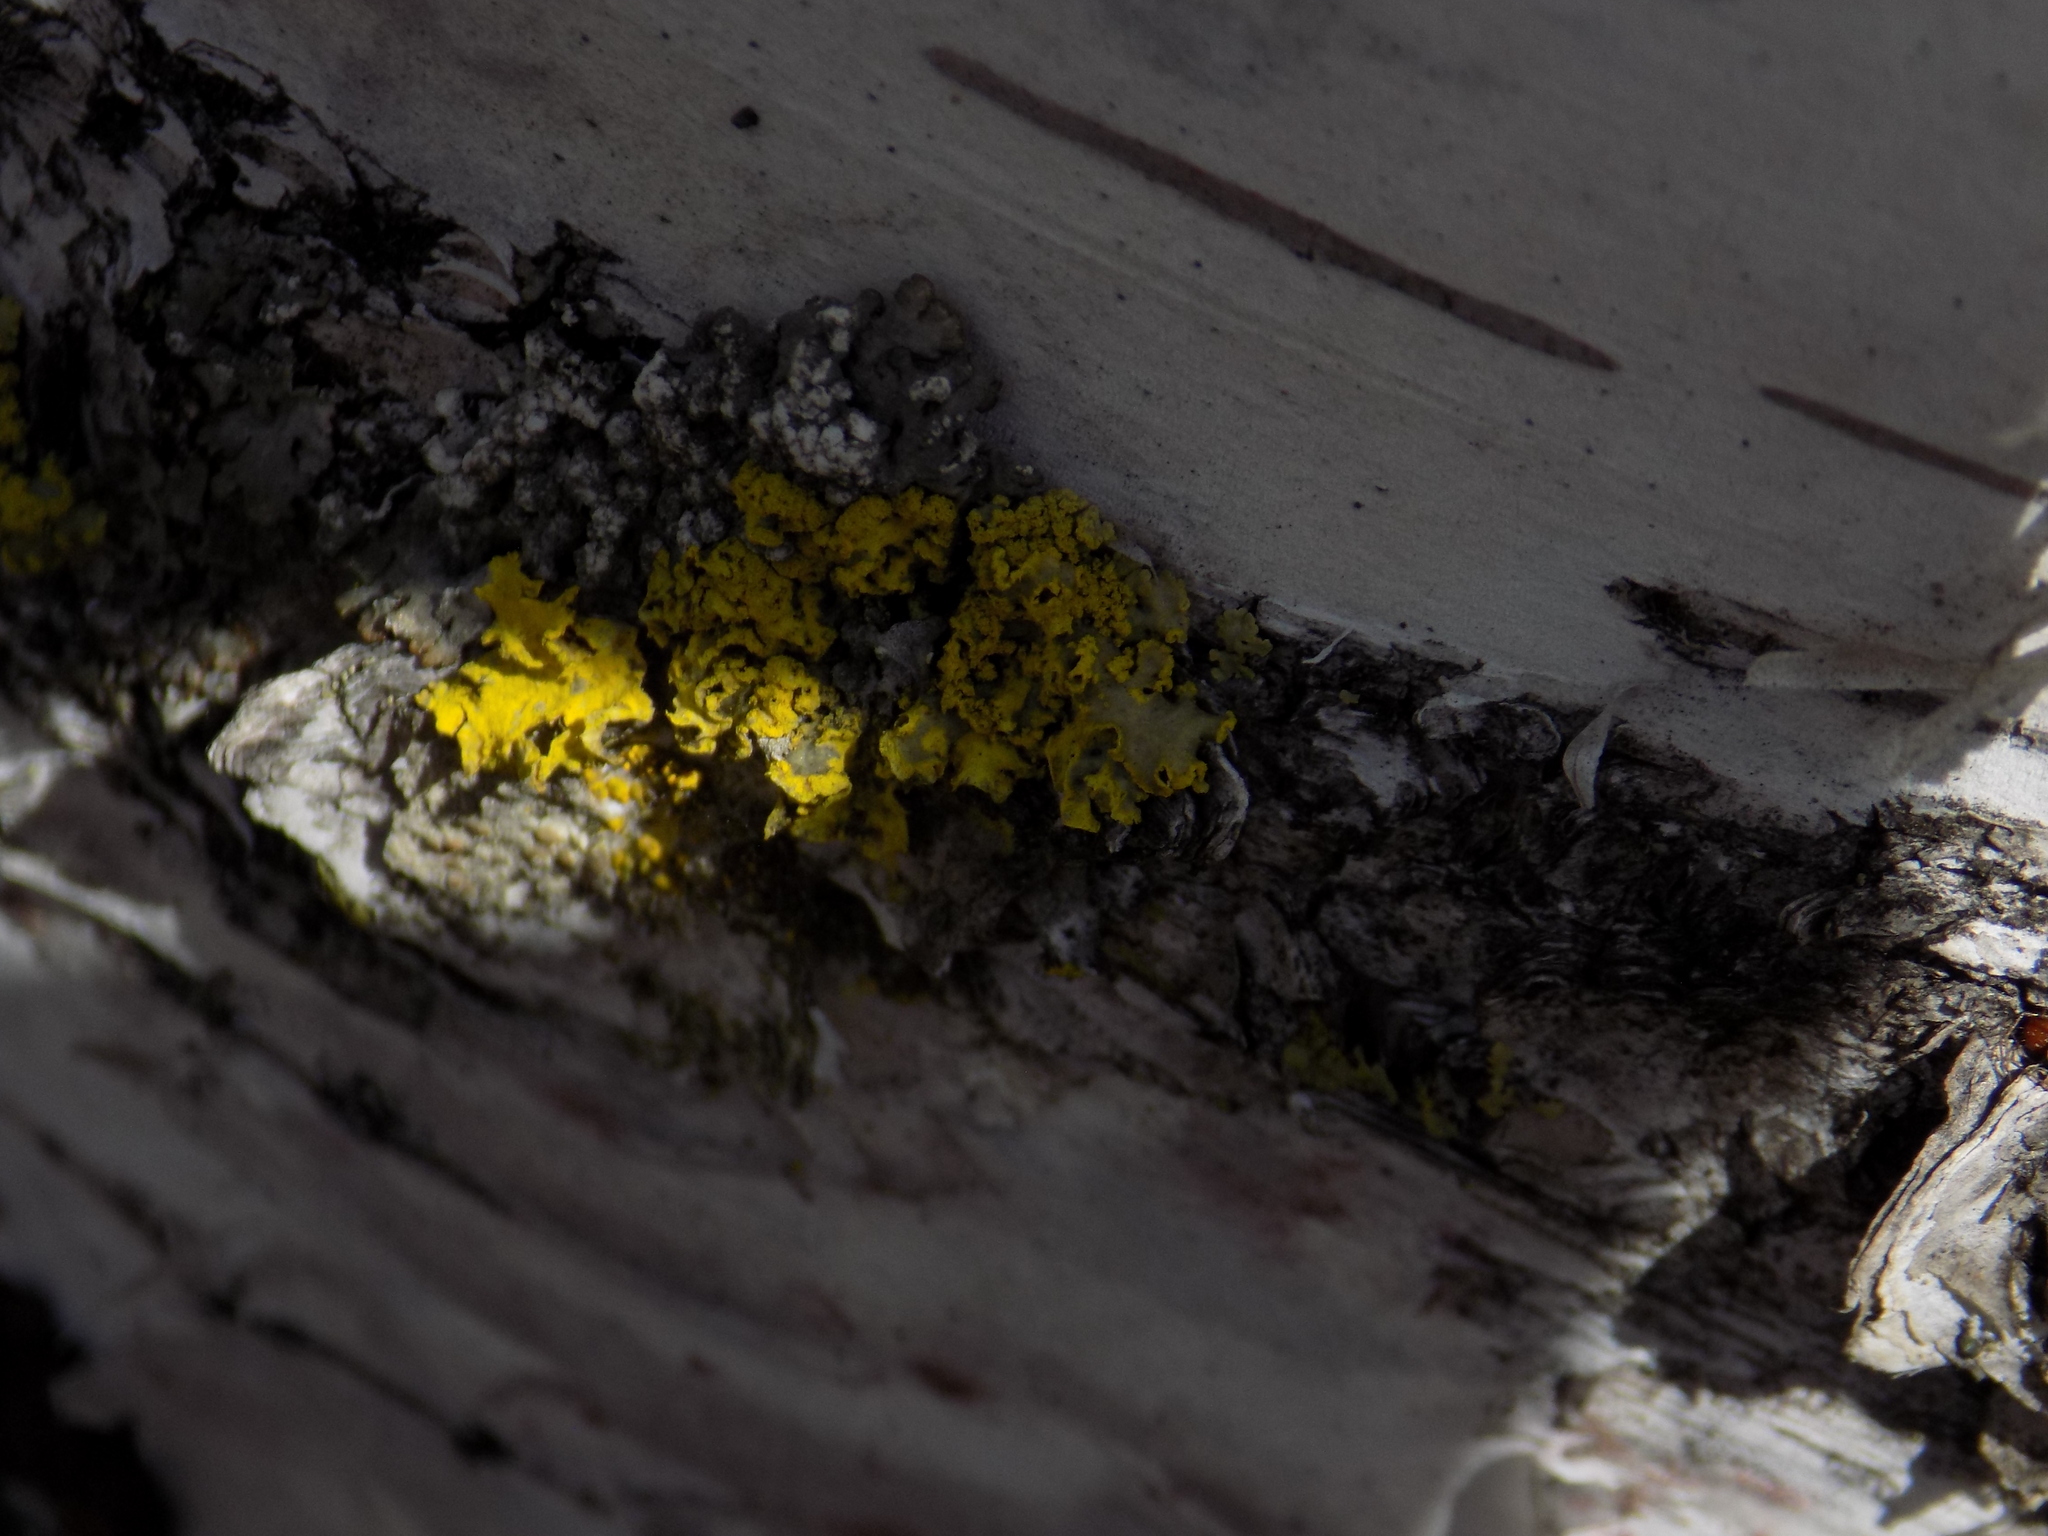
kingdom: Fungi
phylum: Ascomycota
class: Lecanoromycetes
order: Lecanorales
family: Parmeliaceae
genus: Vulpicida
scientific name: Vulpicida pinastri
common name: Powdered sunshine lichen
